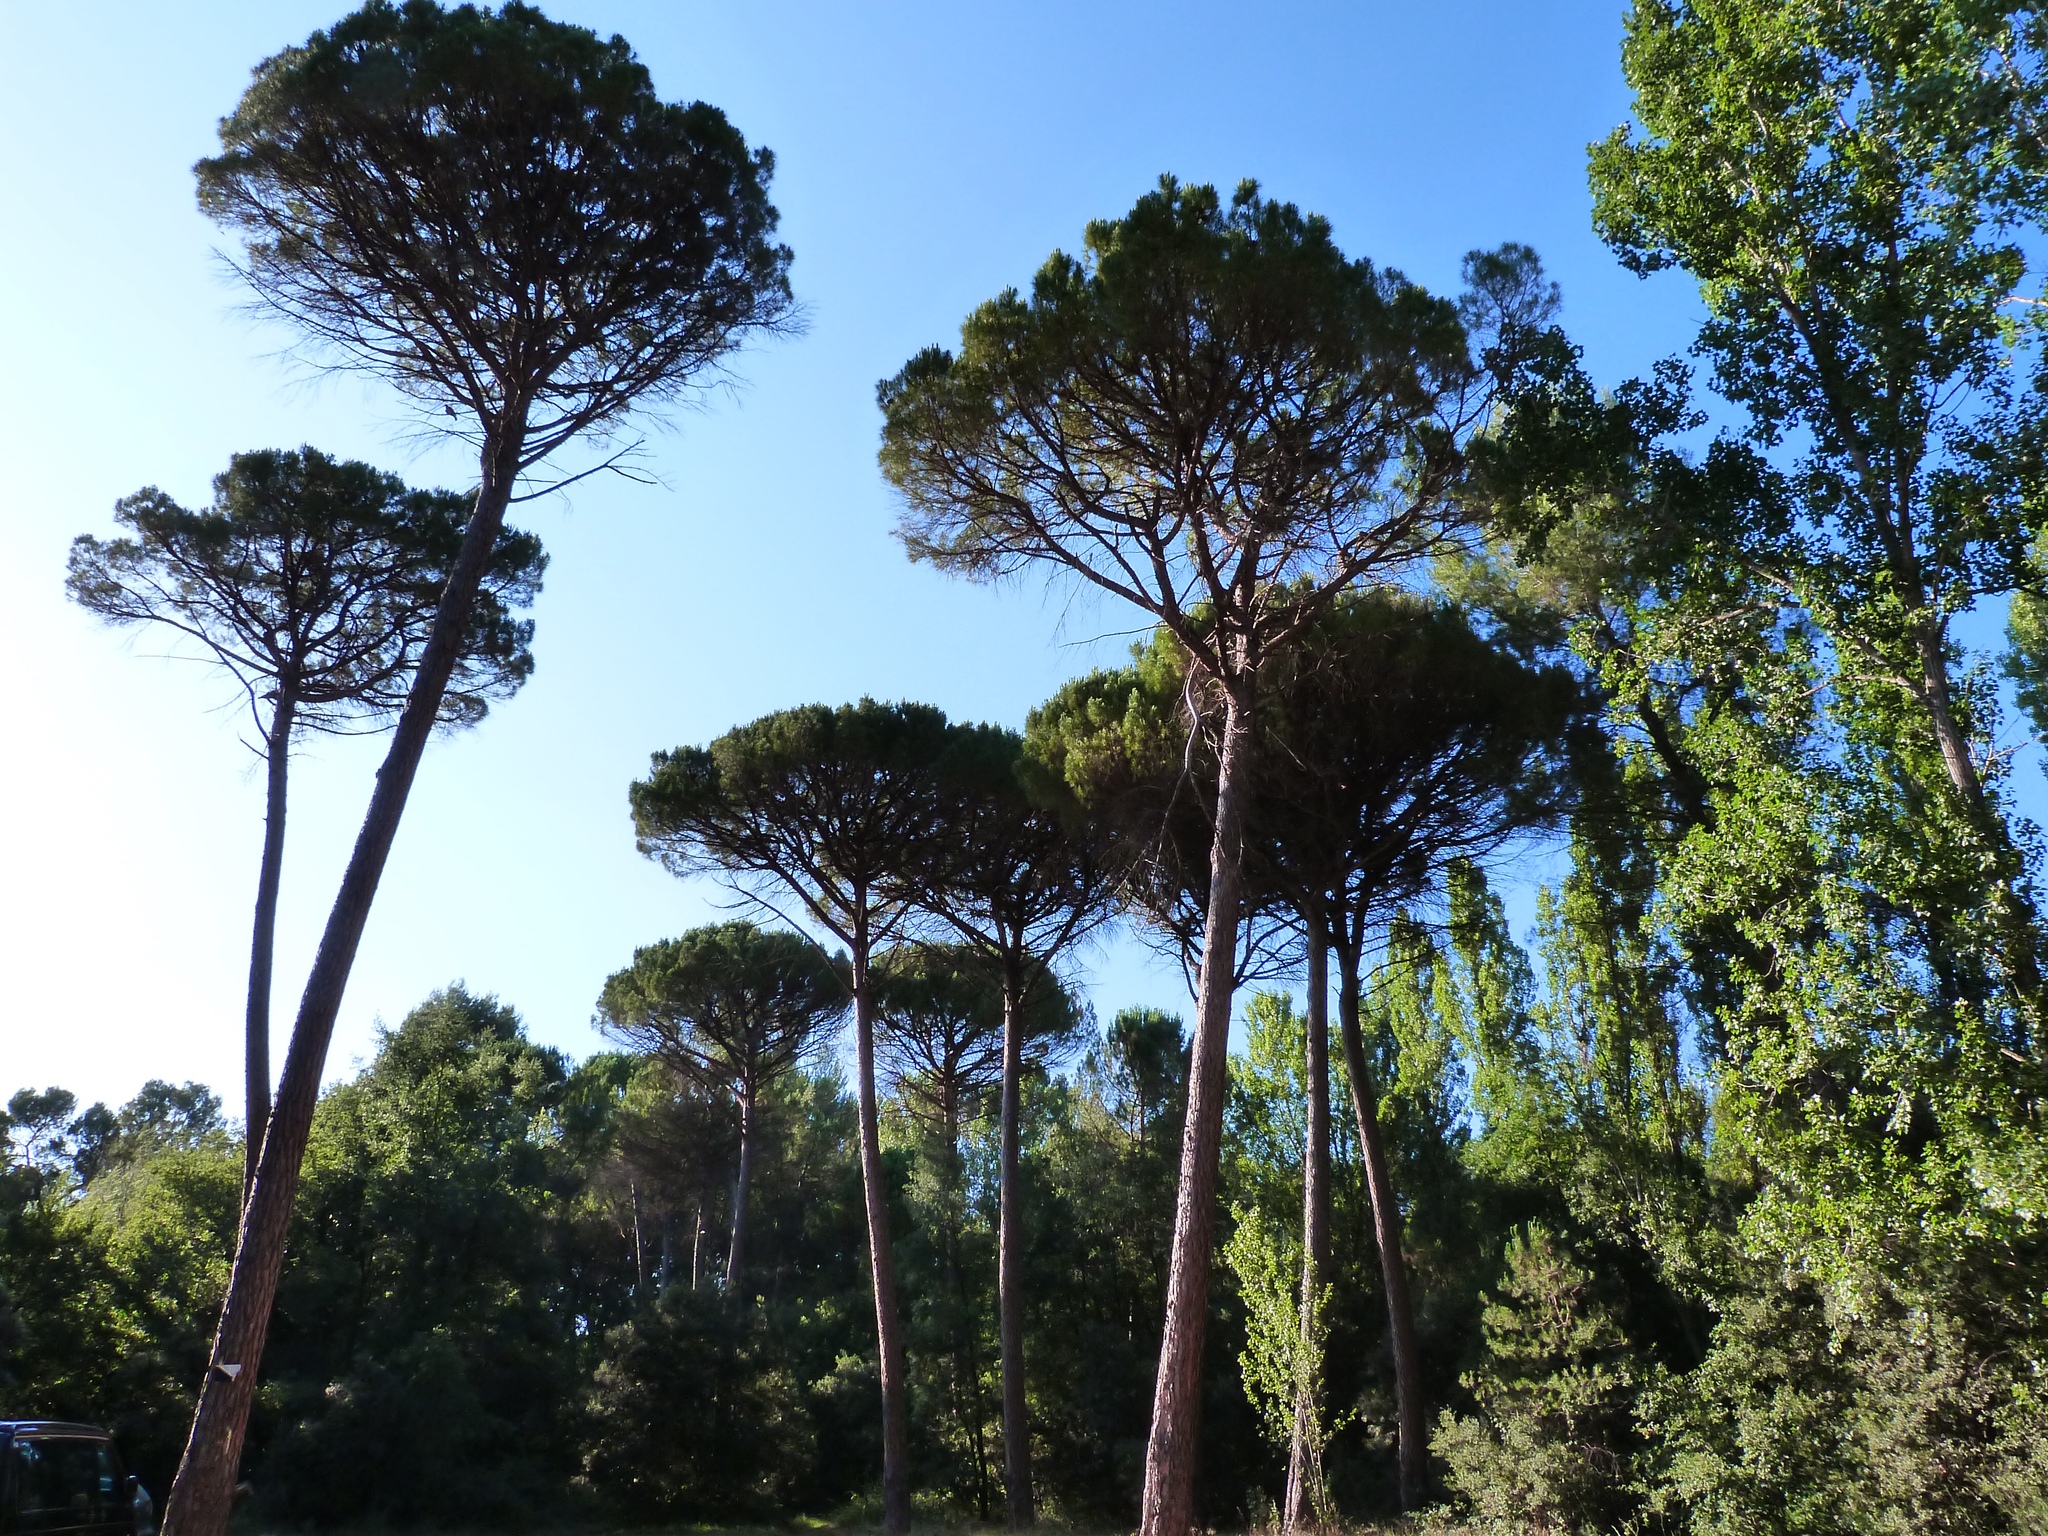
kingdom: Plantae
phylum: Tracheophyta
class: Pinopsida
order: Pinales
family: Pinaceae
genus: Pinus
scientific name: Pinus pinea
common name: Italian stone pine
